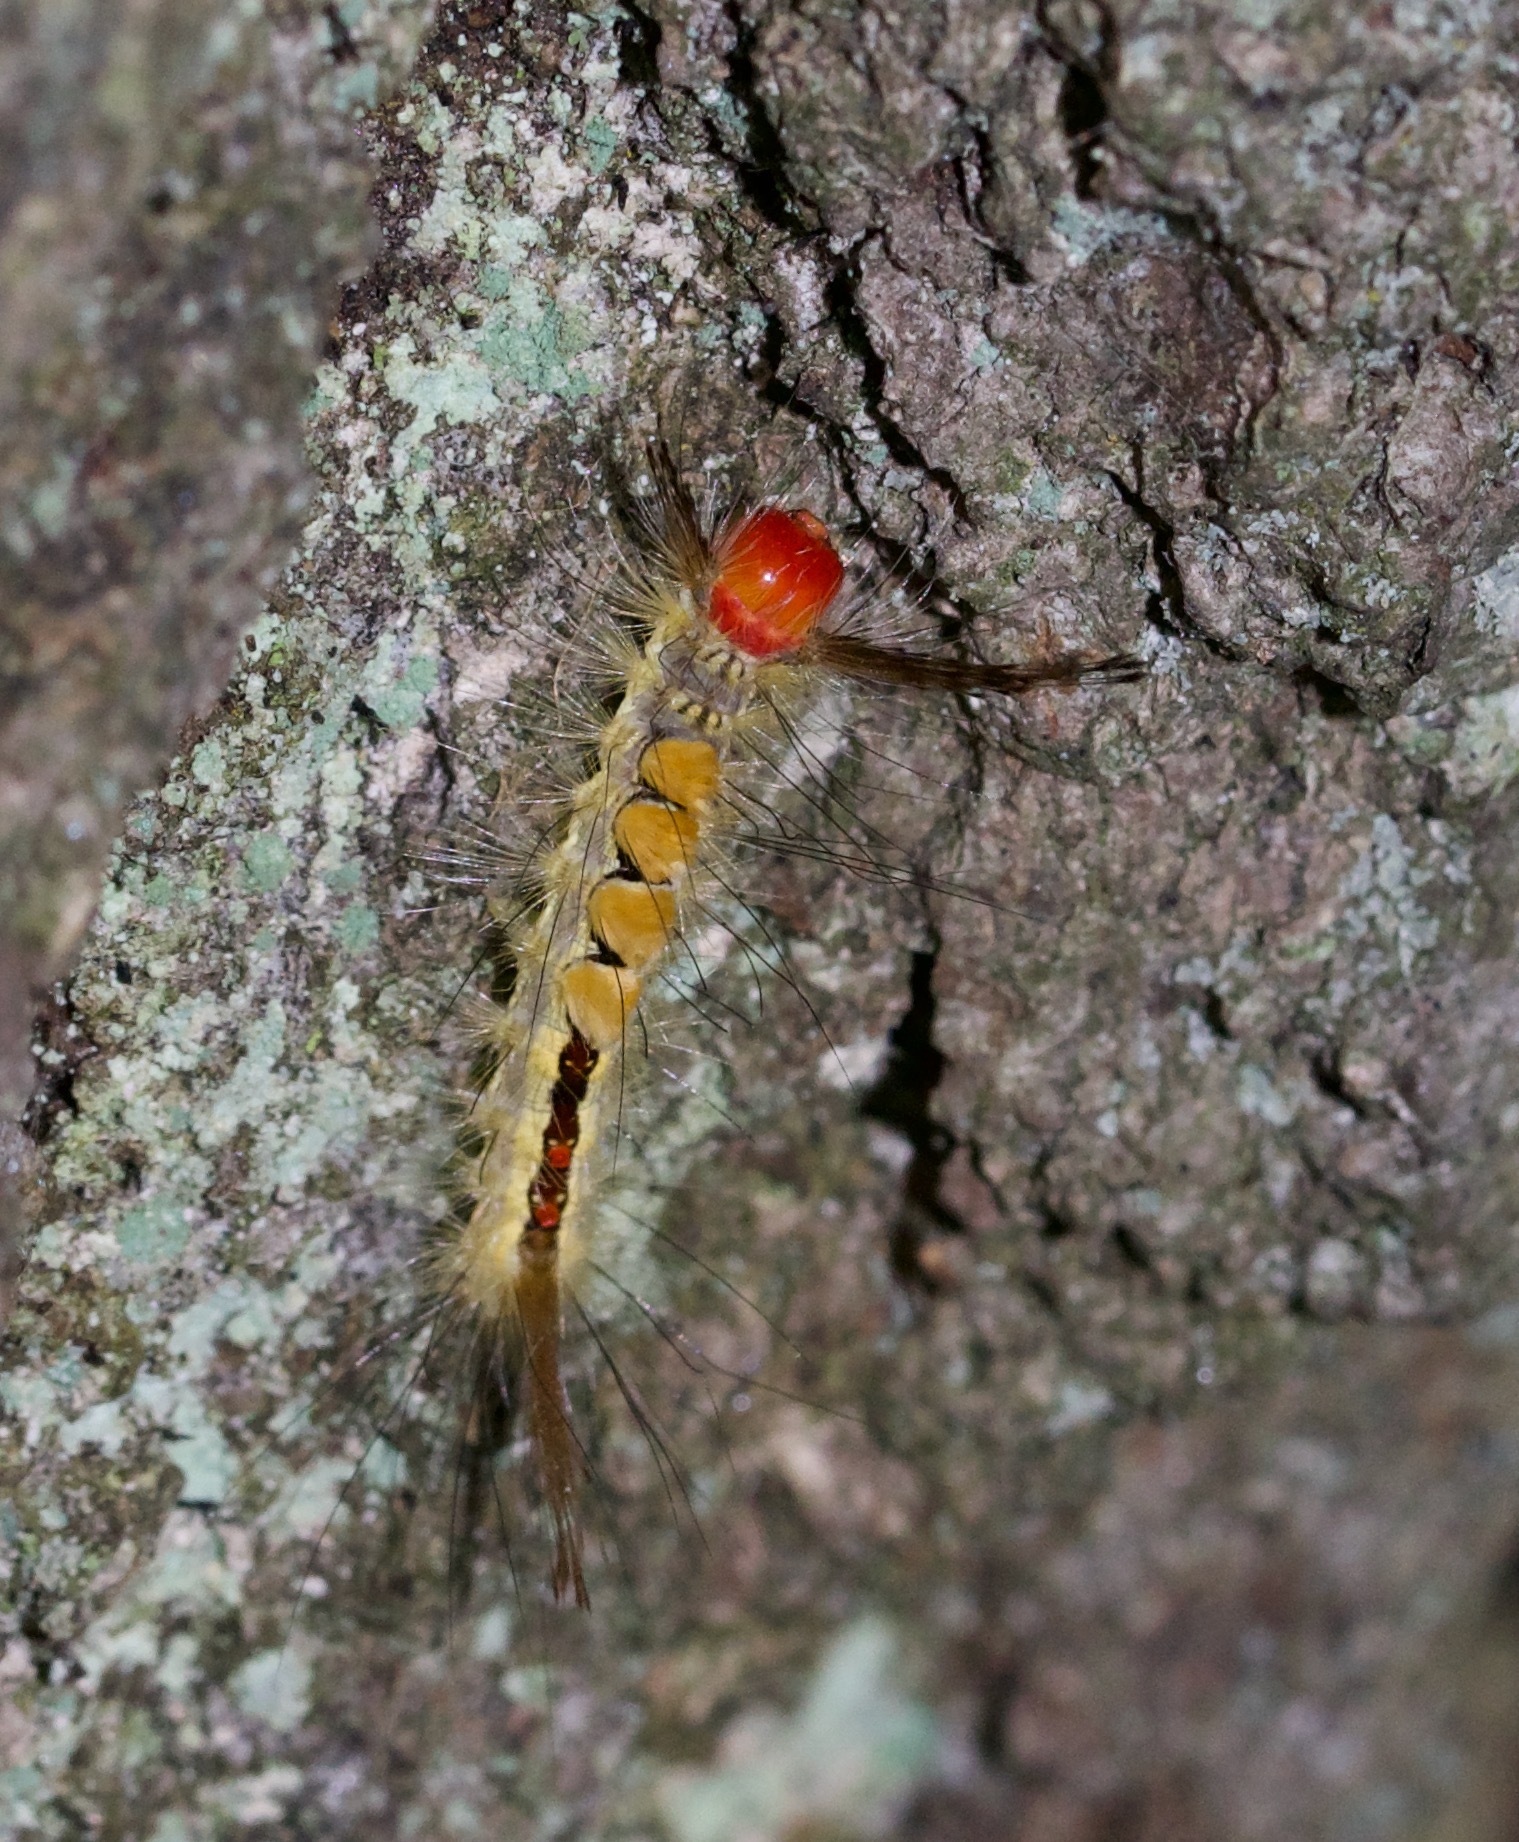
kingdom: Animalia
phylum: Arthropoda
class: Insecta
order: Lepidoptera
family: Erebidae
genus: Orgyia
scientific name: Orgyia leucostigma
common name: White-marked tussock moth
